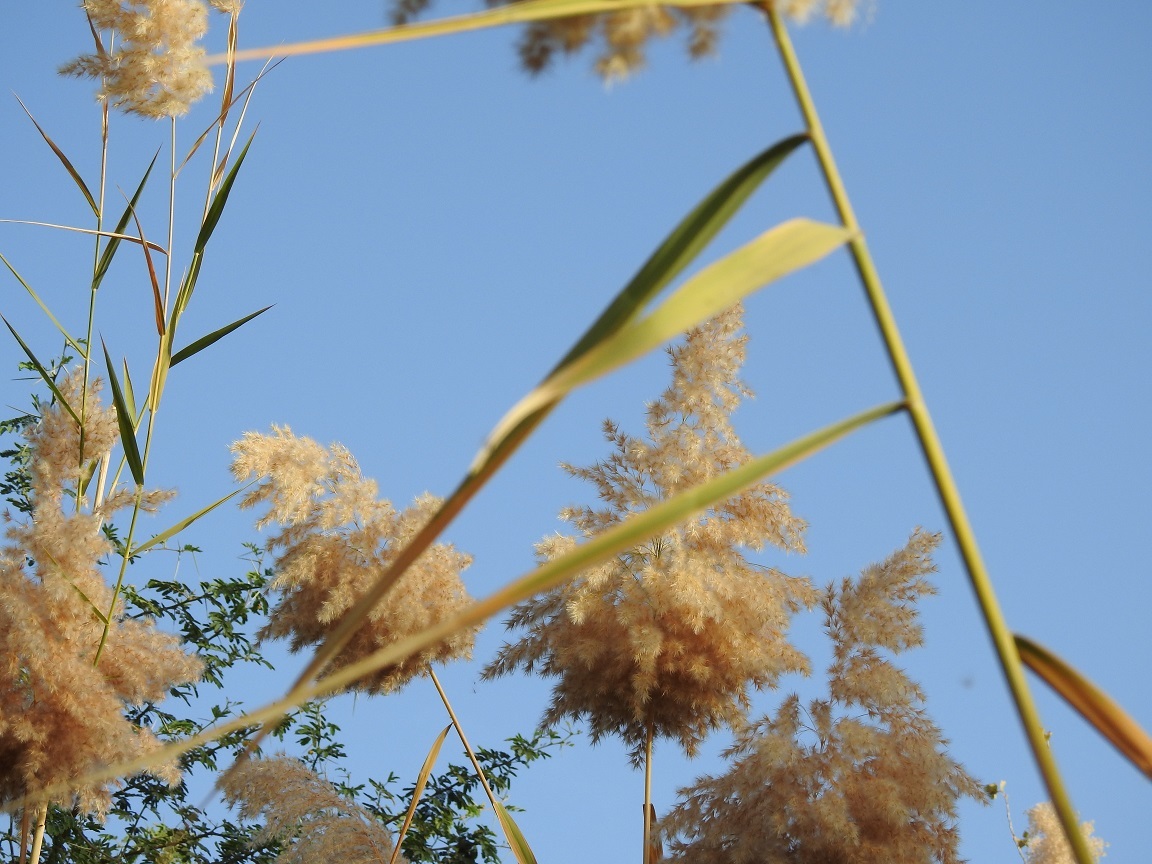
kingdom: Plantae
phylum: Tracheophyta
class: Liliopsida
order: Poales
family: Poaceae
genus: Phragmites
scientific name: Phragmites australis
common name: Common reed
